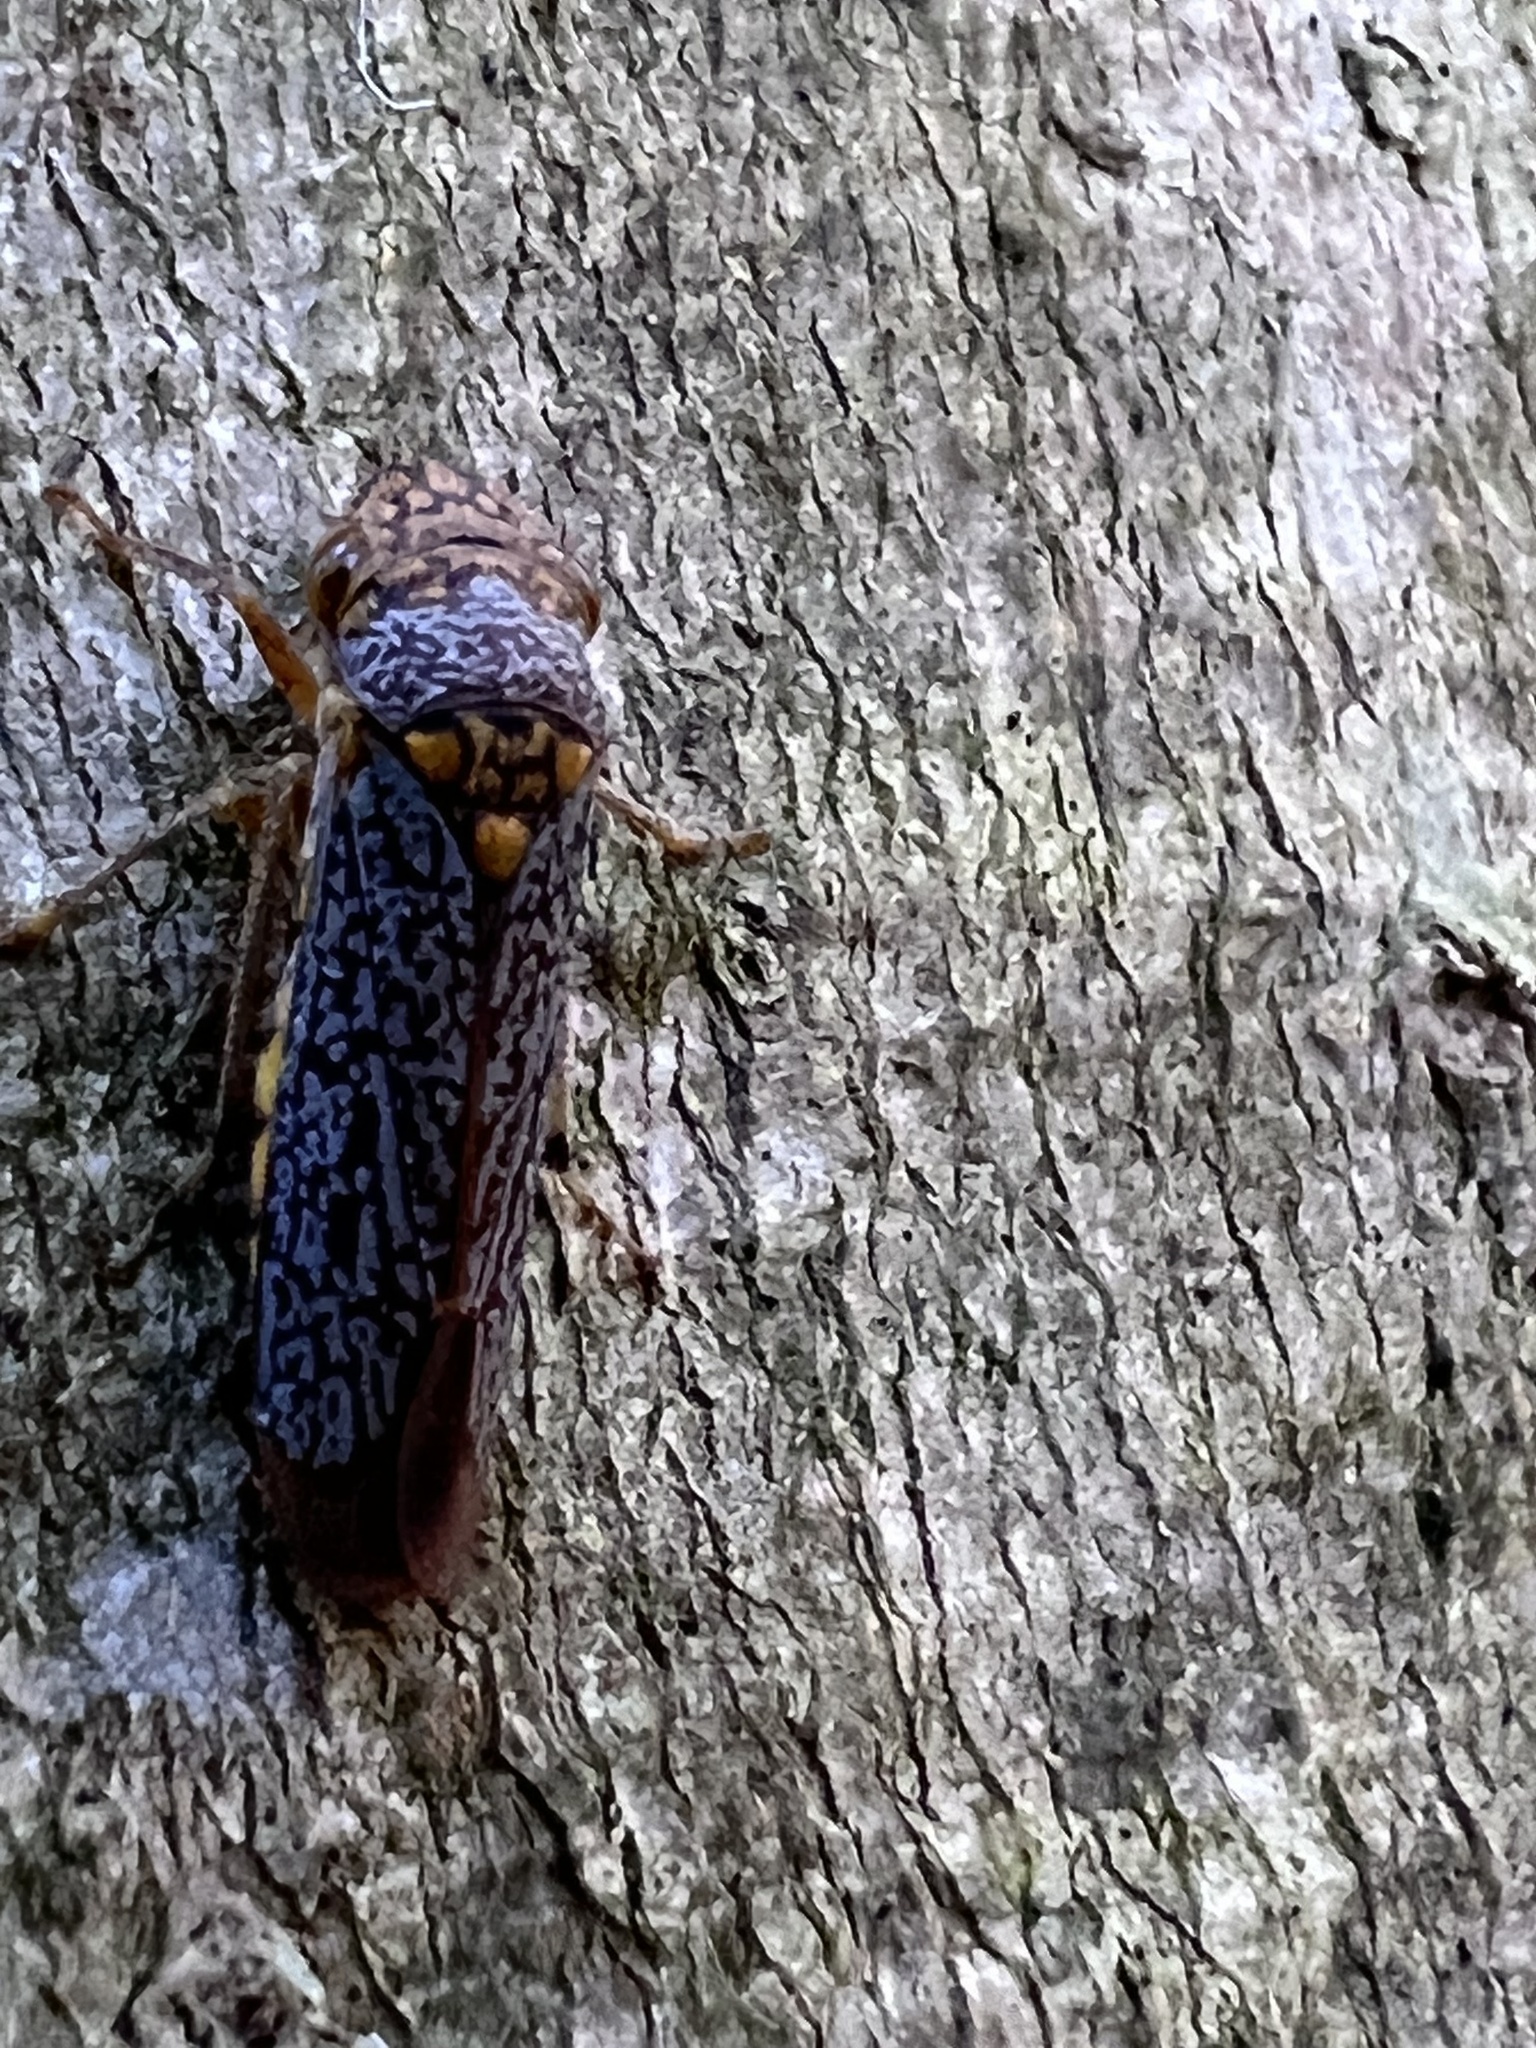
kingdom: Animalia
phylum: Arthropoda
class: Insecta
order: Hemiptera
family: Cicadellidae
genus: Oncometopia
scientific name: Oncometopia orbona
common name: Broad-headed sharpshooter
